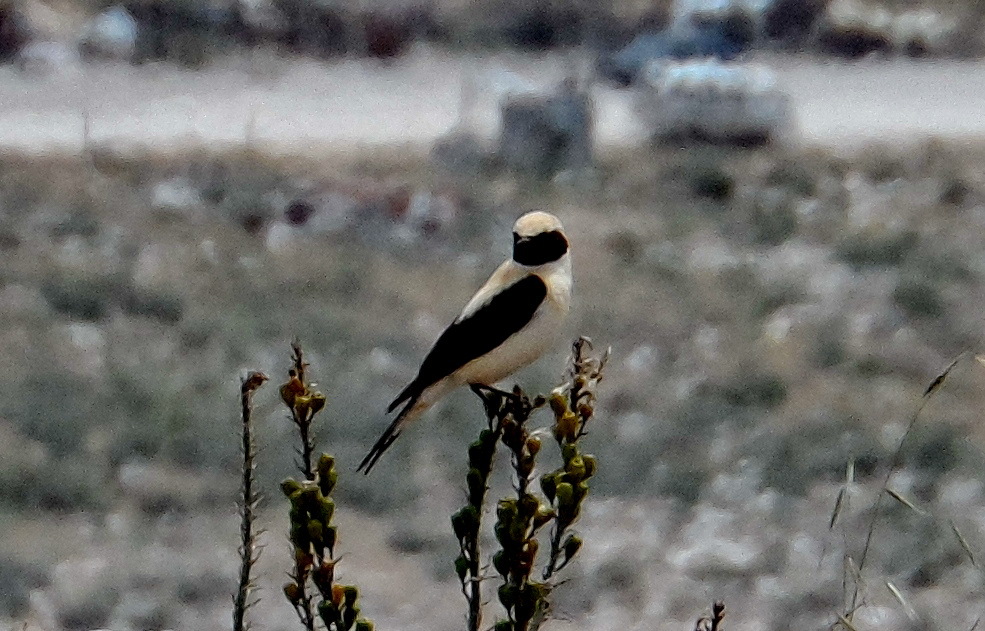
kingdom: Animalia
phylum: Chordata
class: Aves
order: Passeriformes
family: Muscicapidae
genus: Oenanthe
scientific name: Oenanthe hispanica
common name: Black-eared wheatear
